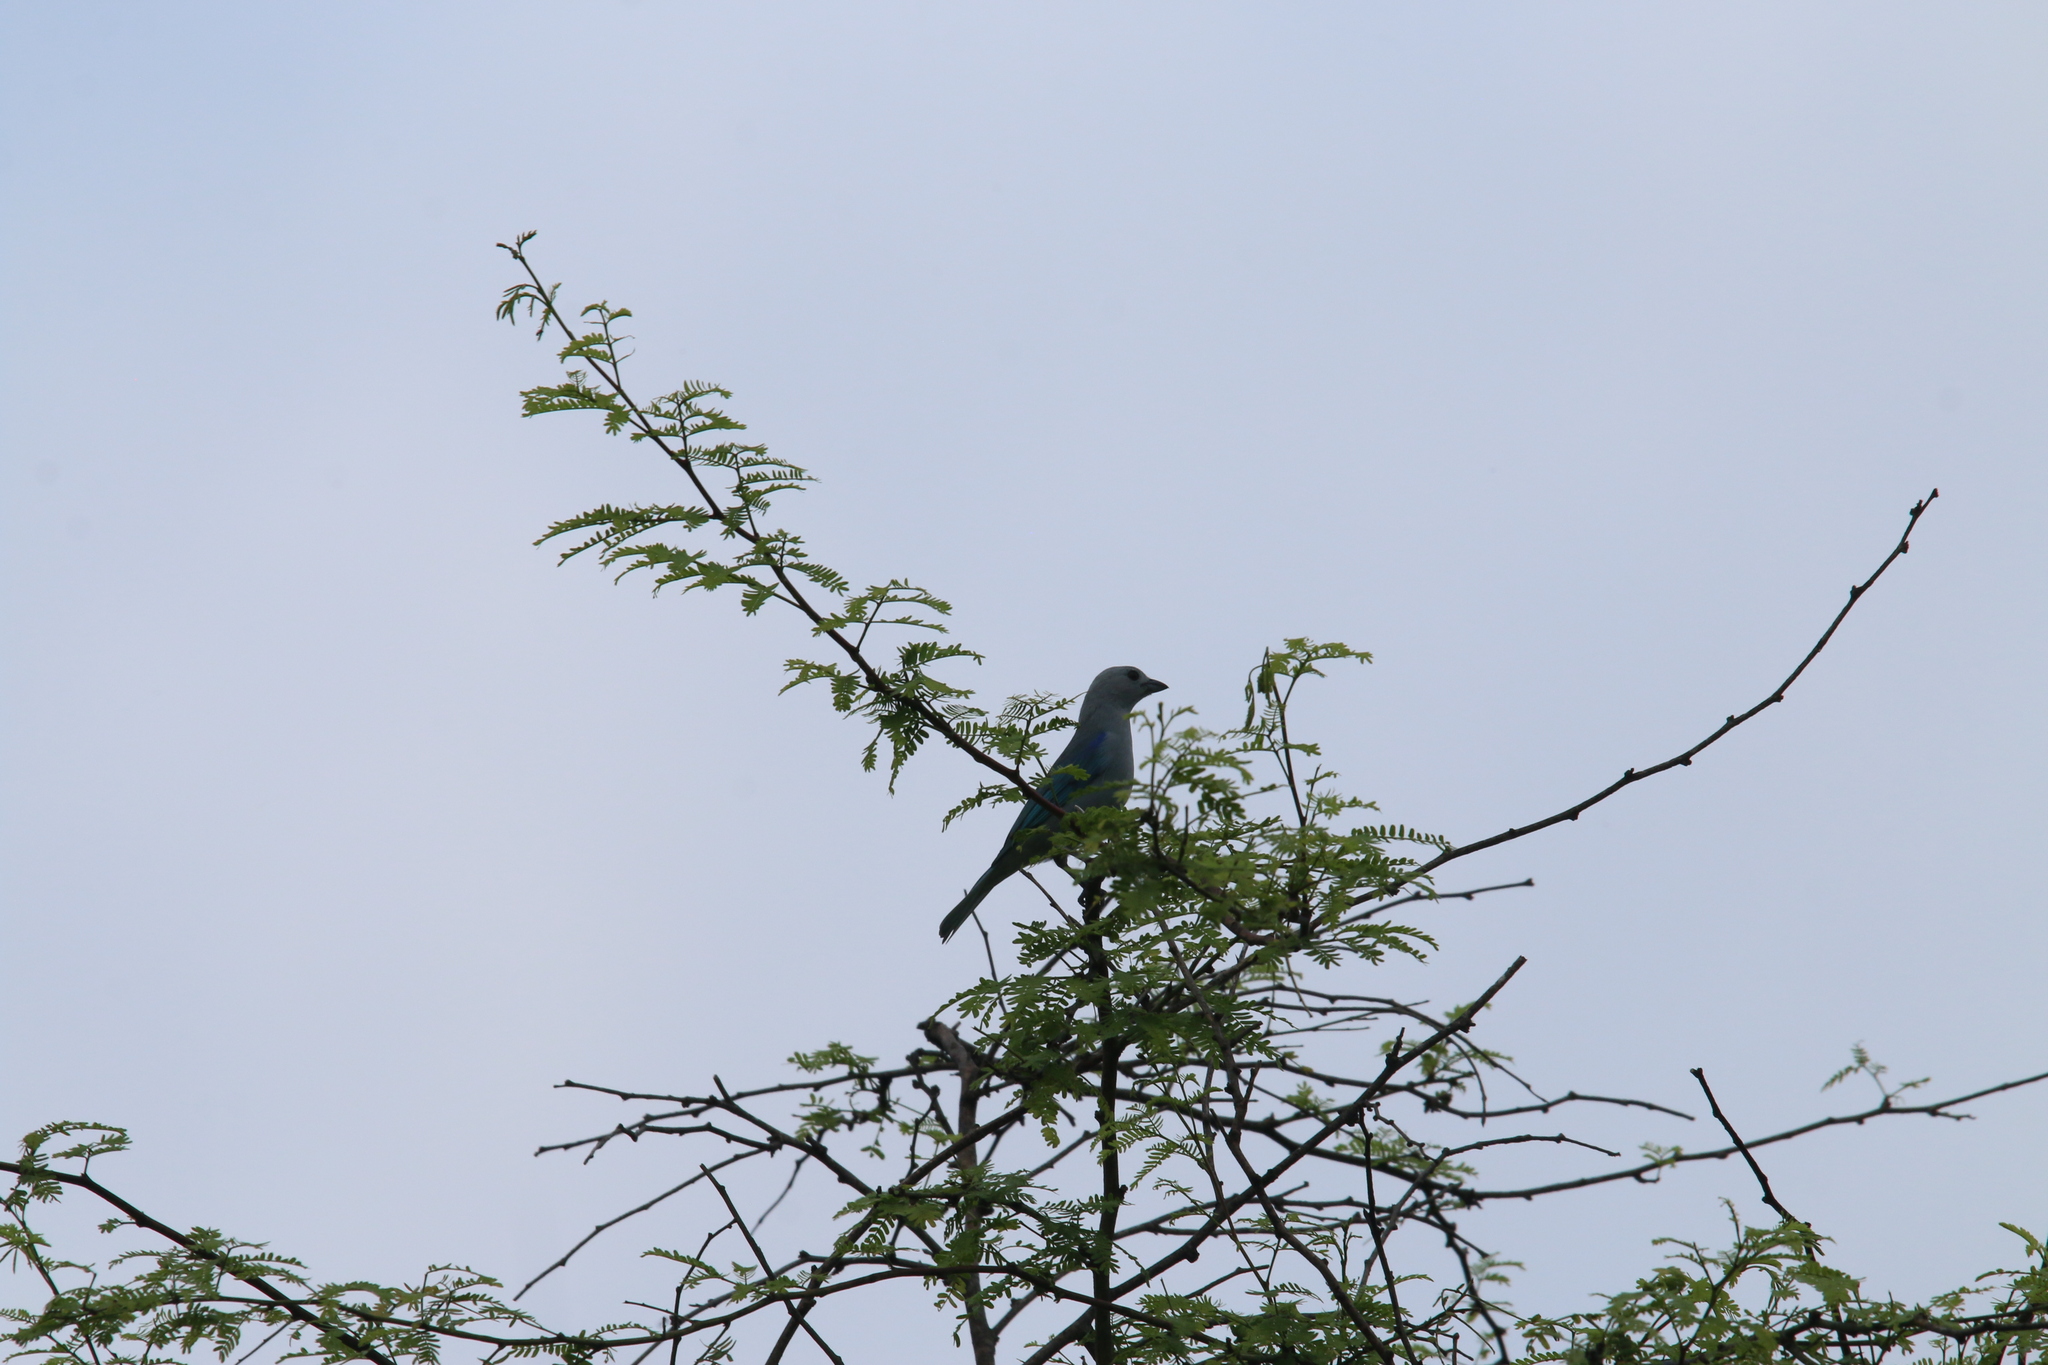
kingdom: Animalia
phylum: Chordata
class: Aves
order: Passeriformes
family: Thraupidae
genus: Thraupis
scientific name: Thraupis episcopus
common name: Blue-grey tanager
